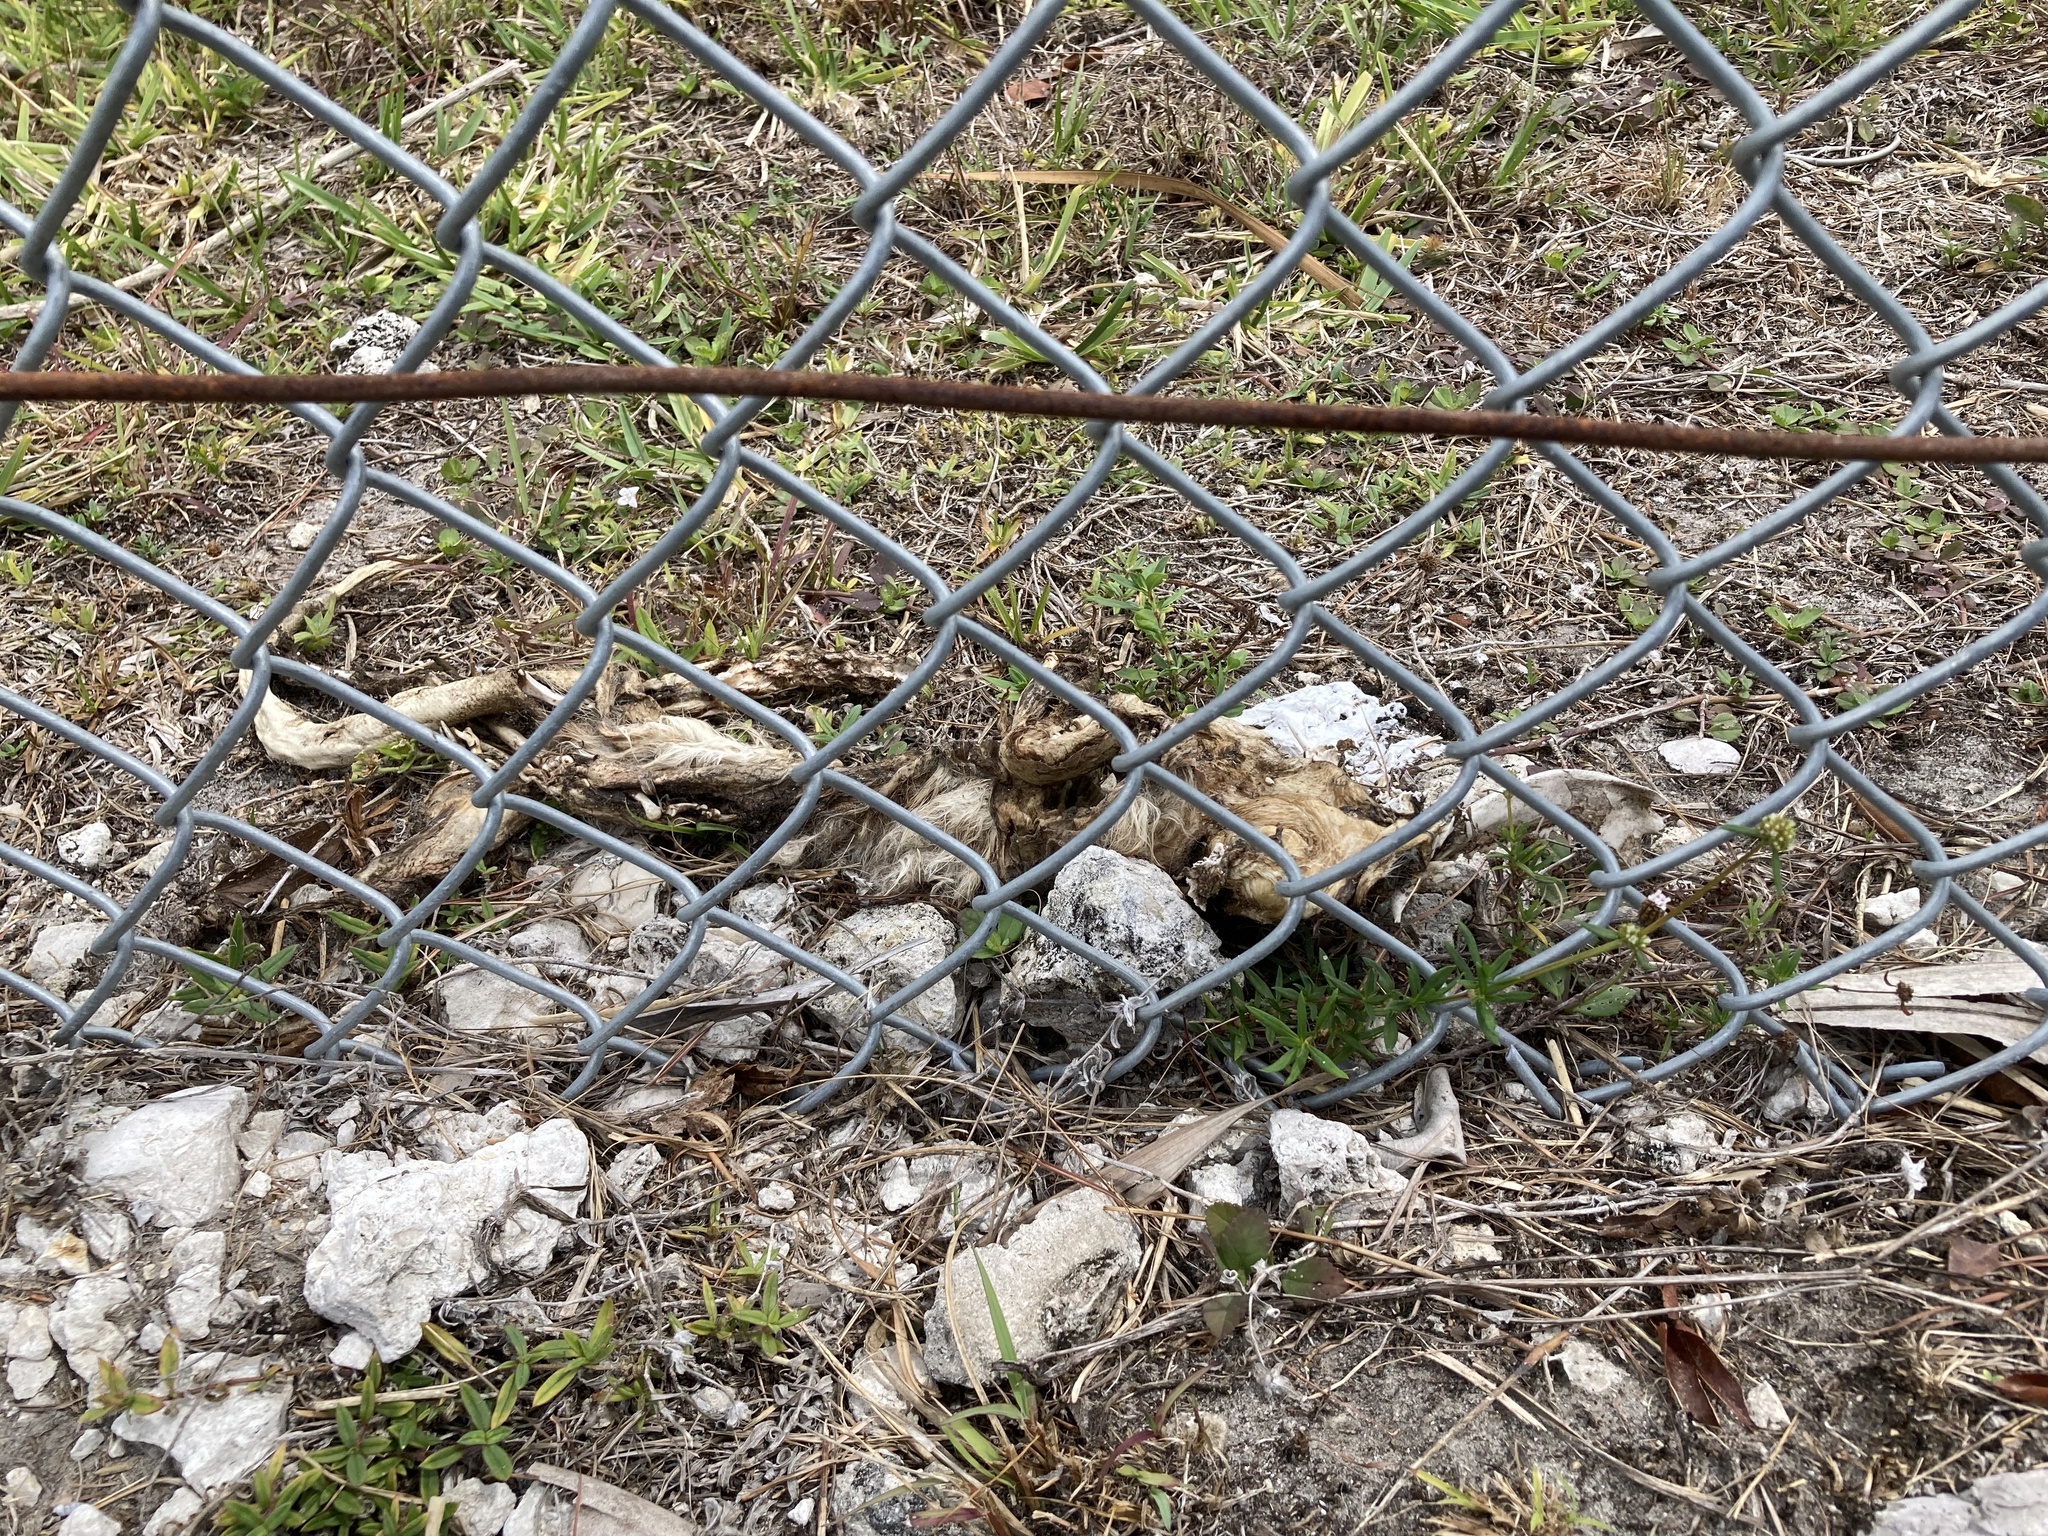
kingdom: Animalia
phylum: Chordata
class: Mammalia
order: Didelphimorphia
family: Didelphidae
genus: Didelphis
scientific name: Didelphis virginiana
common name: Virginia opossum
